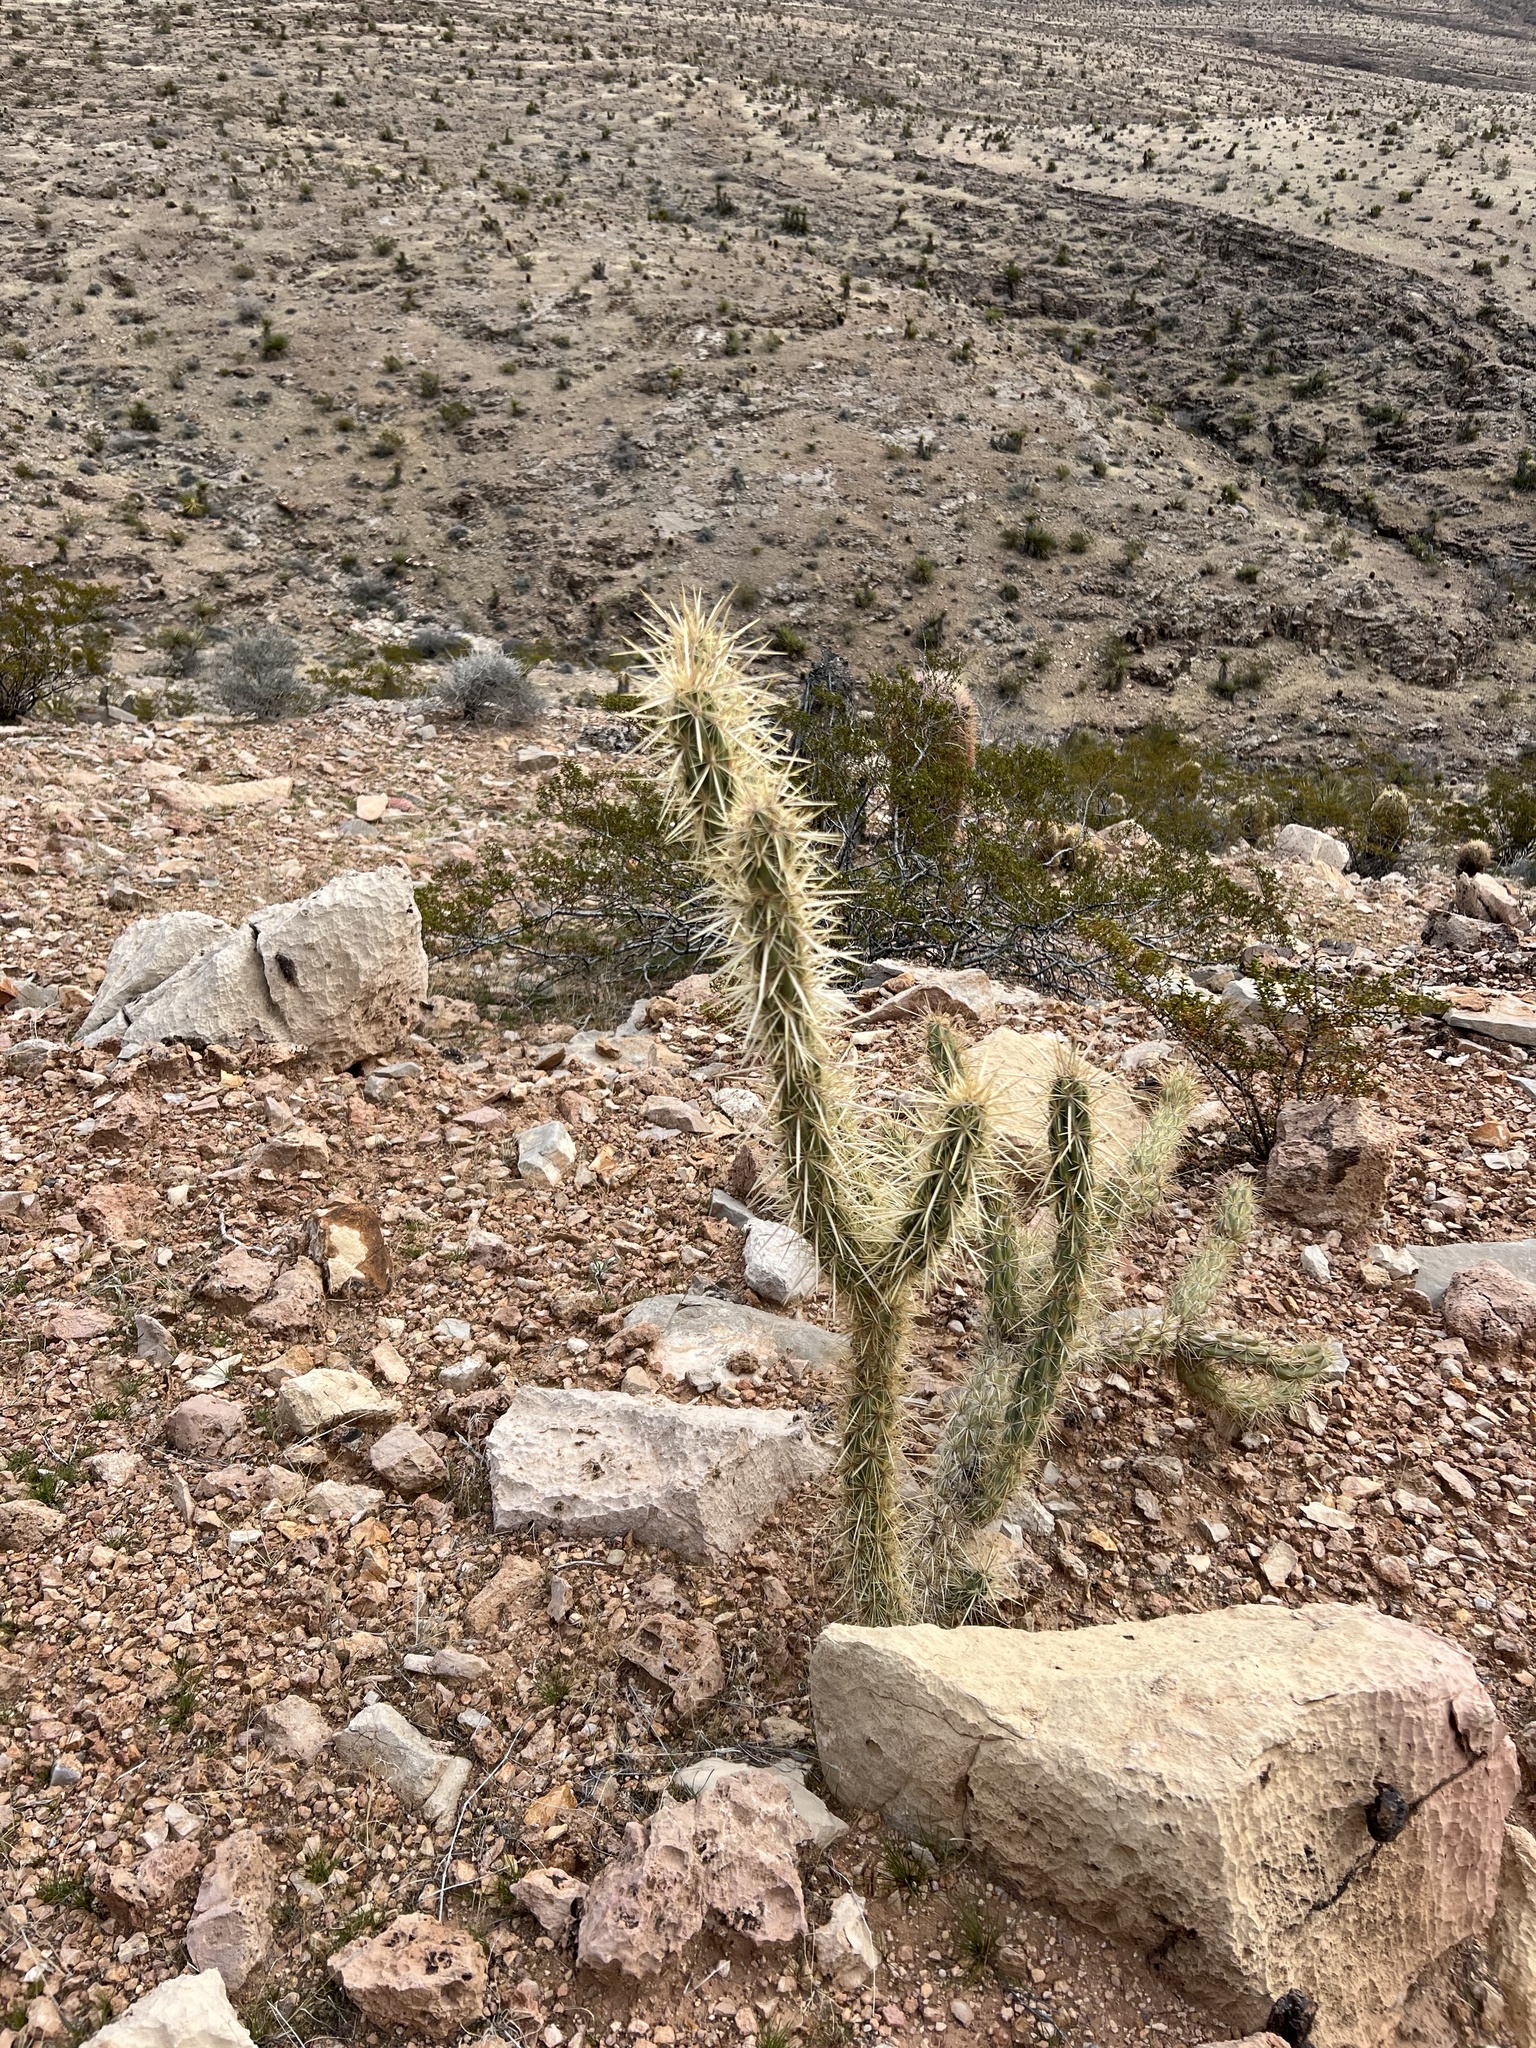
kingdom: Plantae
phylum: Tracheophyta
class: Magnoliopsida
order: Caryophyllales
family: Cactaceae
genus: Cylindropuntia
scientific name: Cylindropuntia acanthocarpa
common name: Buckhorn cholla
